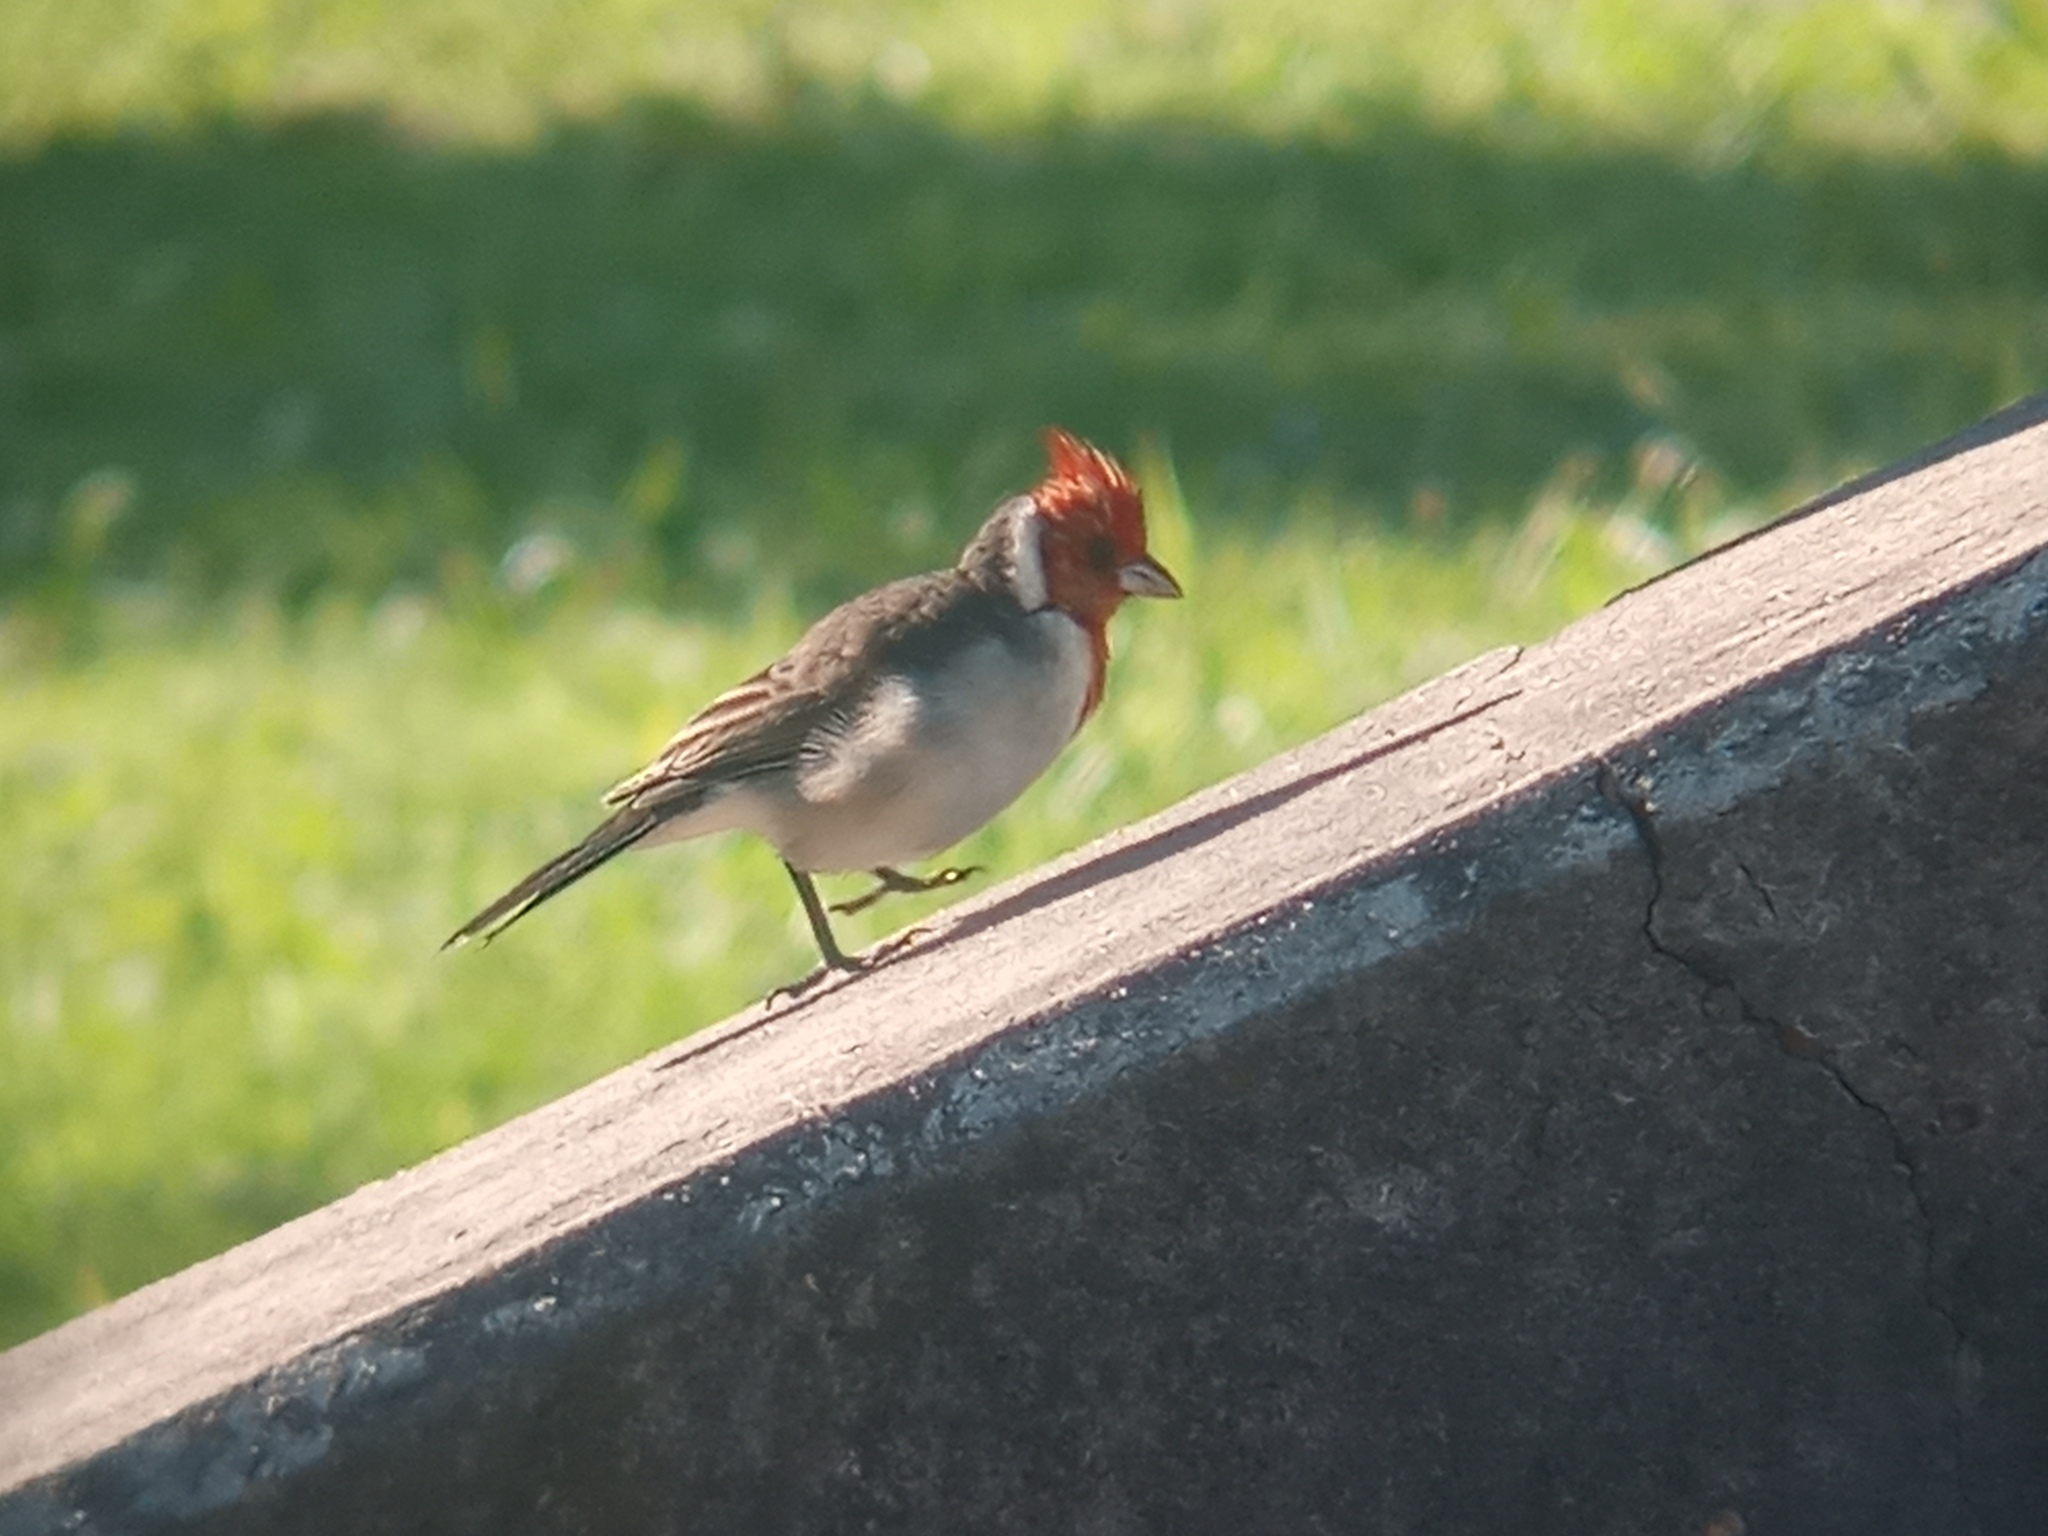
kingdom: Animalia
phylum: Chordata
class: Aves
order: Passeriformes
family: Thraupidae
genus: Paroaria
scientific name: Paroaria coronata
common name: Red-crested cardinal
